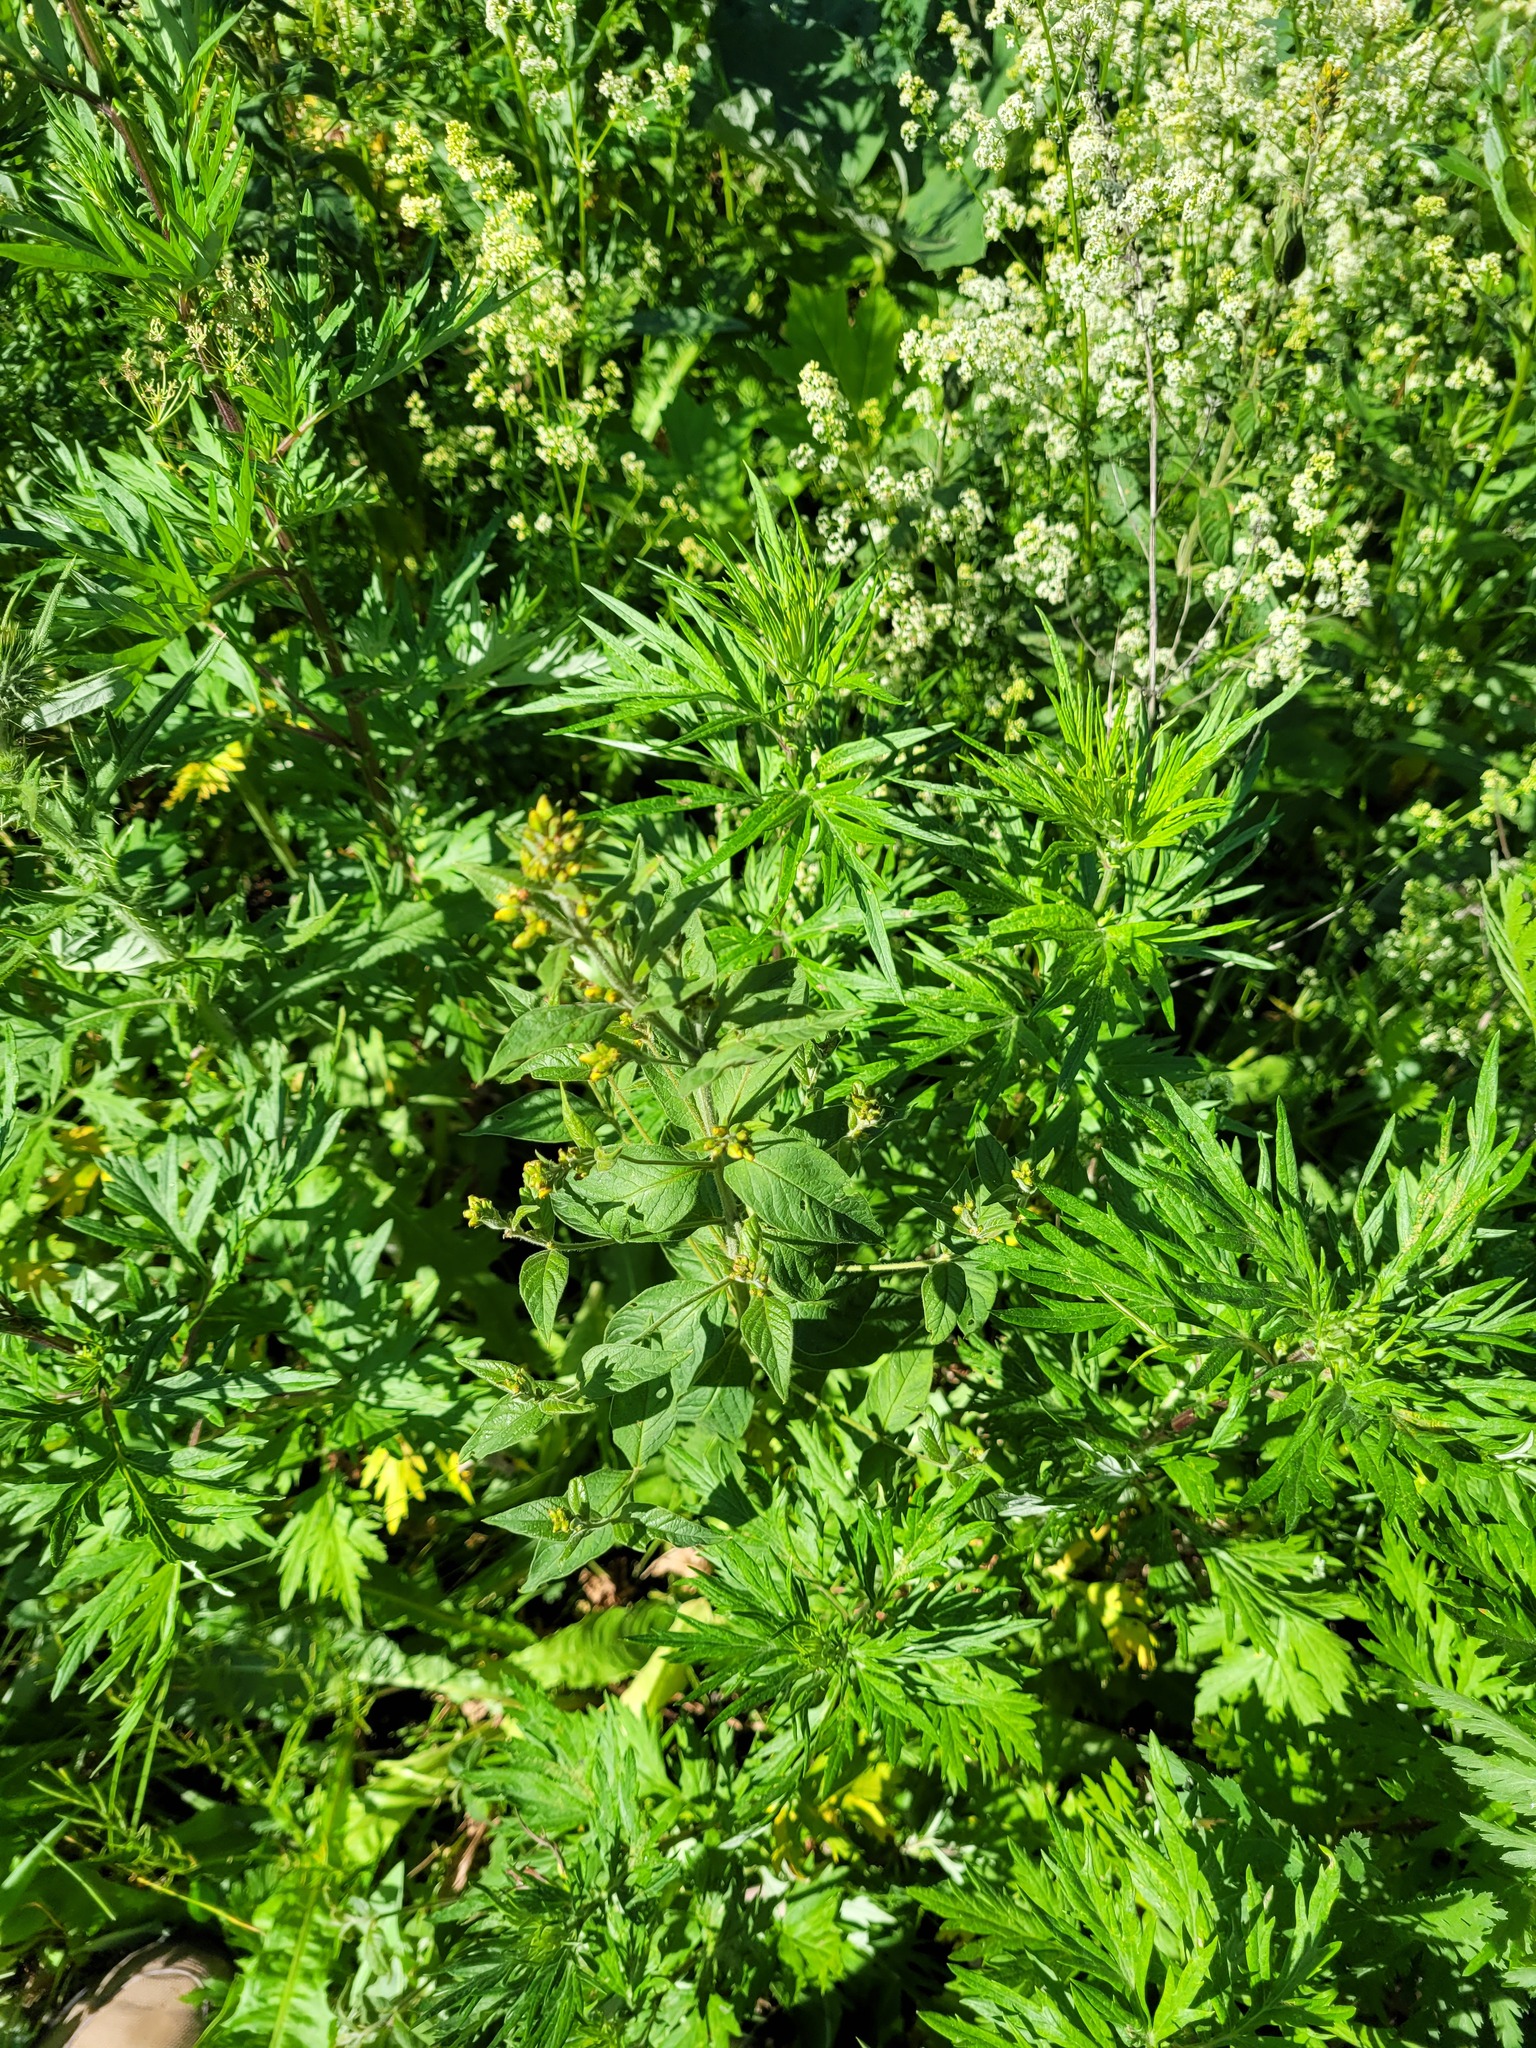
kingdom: Plantae
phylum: Tracheophyta
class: Magnoliopsida
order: Apiales
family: Apiaceae
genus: Anthriscus
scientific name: Anthriscus sylvestris
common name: Cow parsley
